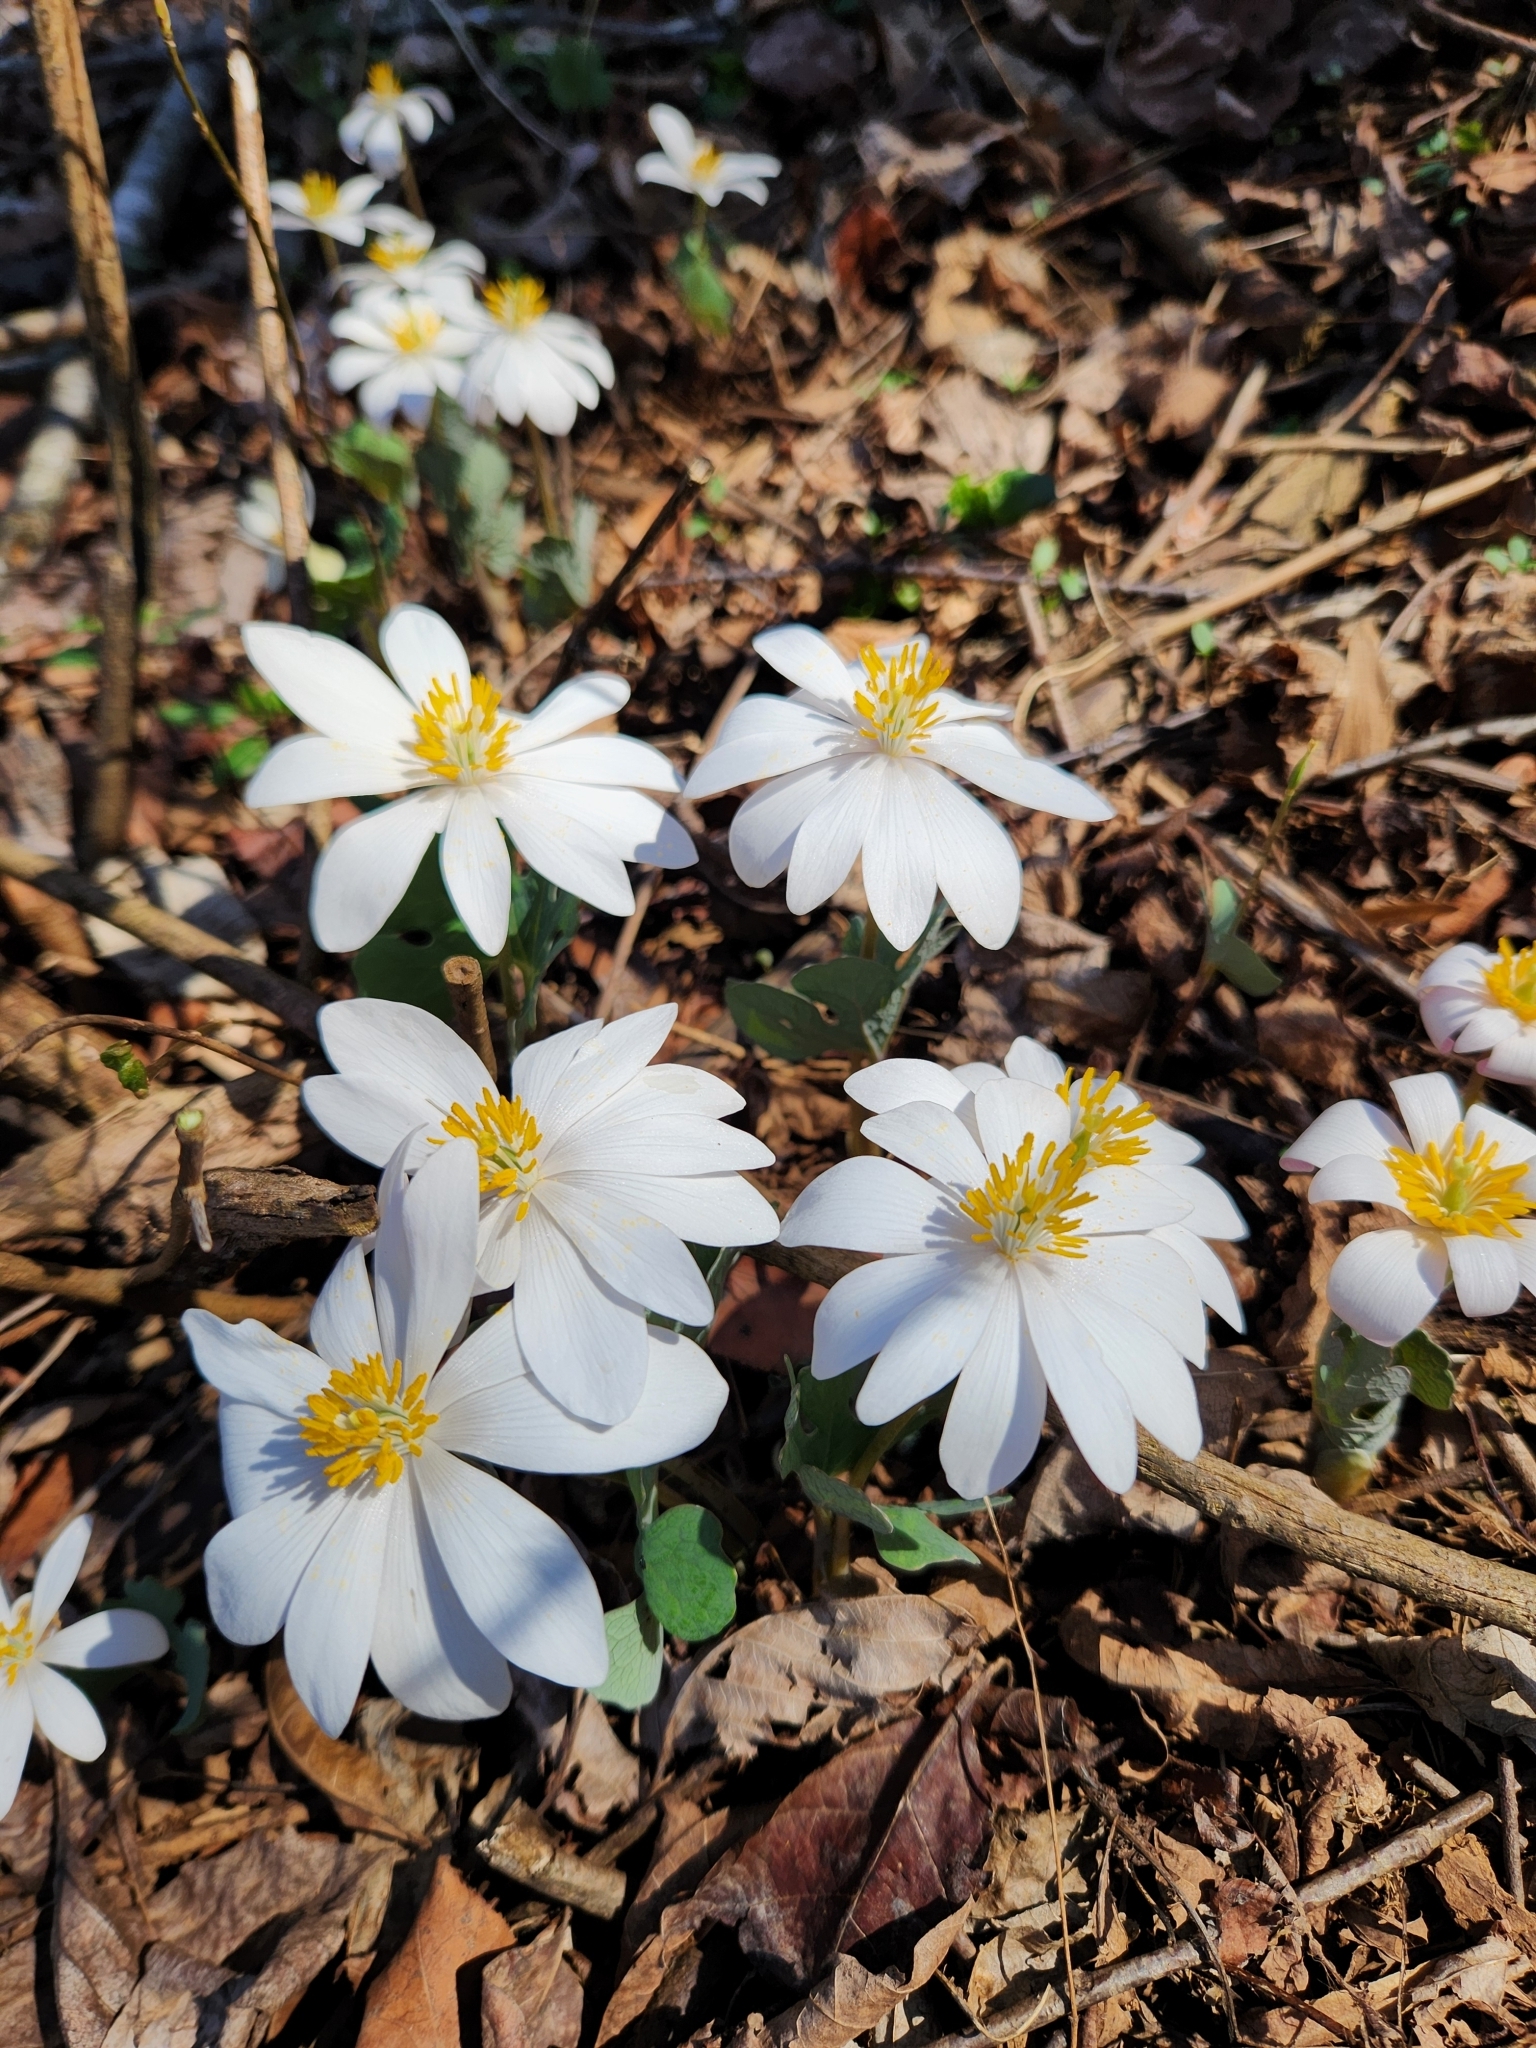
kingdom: Plantae
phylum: Tracheophyta
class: Magnoliopsida
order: Ranunculales
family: Papaveraceae
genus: Sanguinaria
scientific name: Sanguinaria canadensis
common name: Bloodroot
